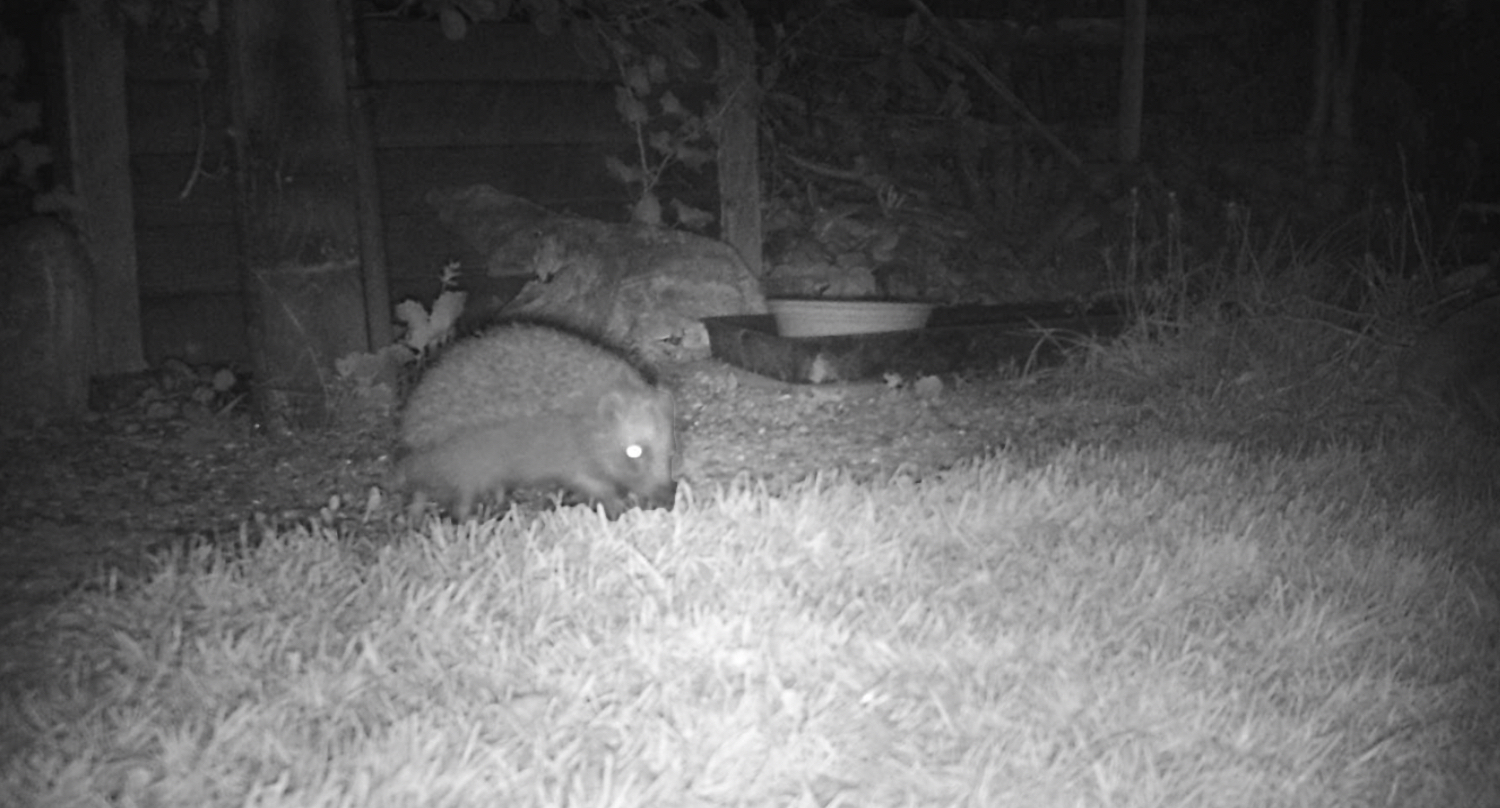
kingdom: Animalia
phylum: Chordata
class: Mammalia
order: Erinaceomorpha
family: Erinaceidae
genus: Erinaceus
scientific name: Erinaceus europaeus
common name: West european hedgehog
